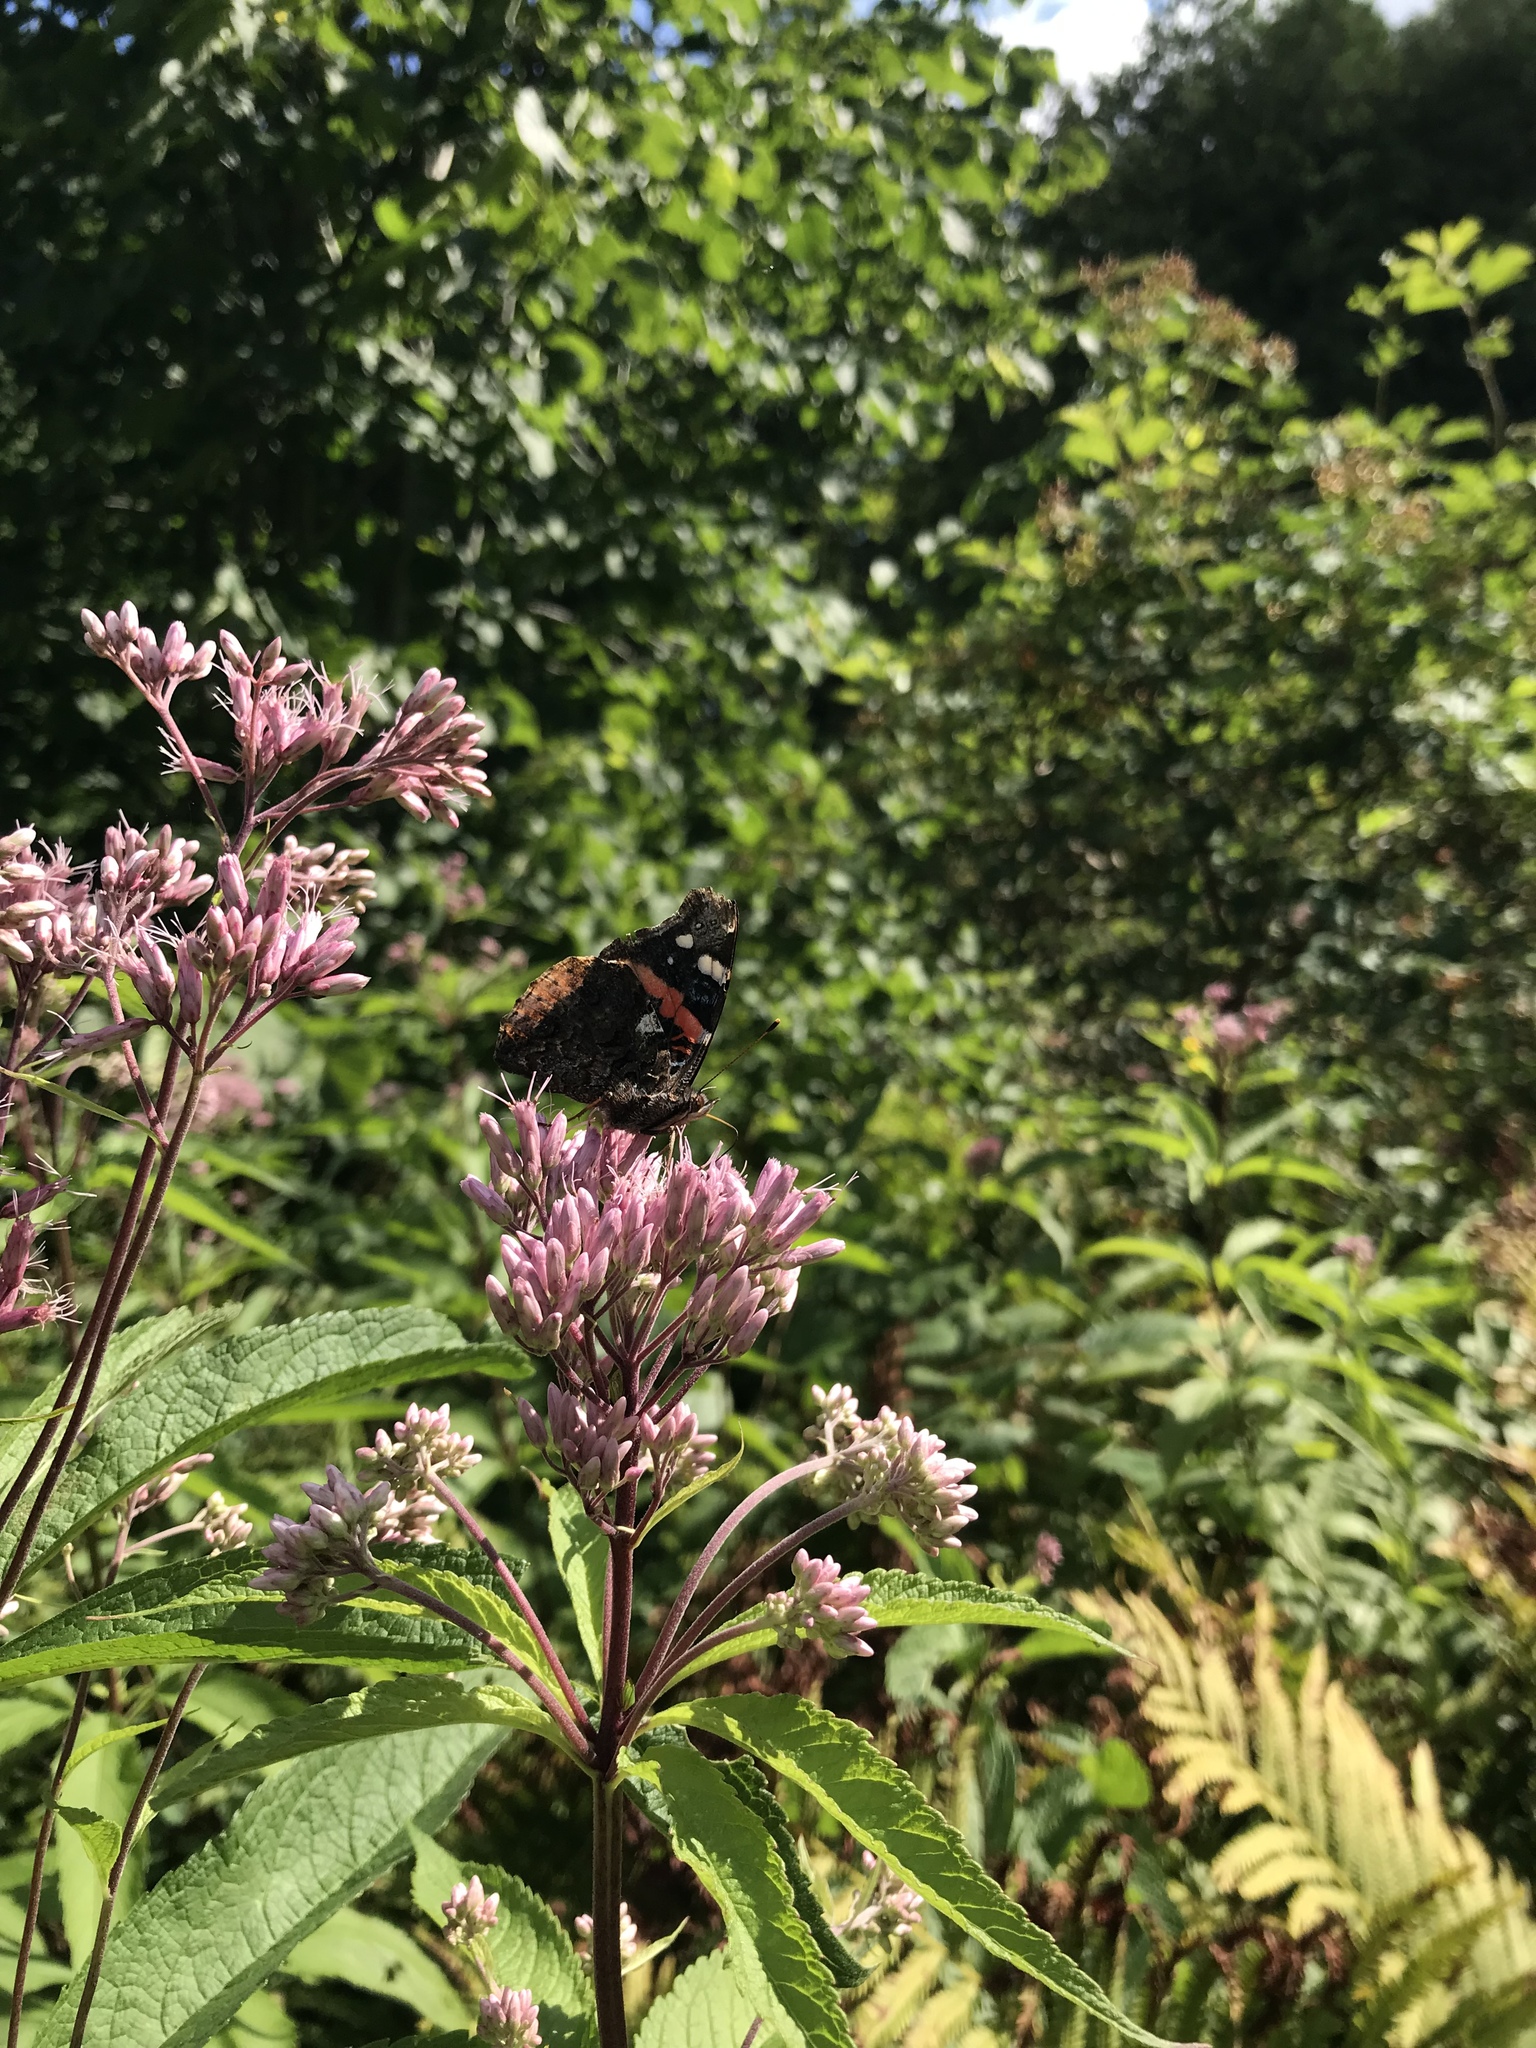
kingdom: Animalia
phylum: Arthropoda
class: Insecta
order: Lepidoptera
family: Nymphalidae
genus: Vanessa
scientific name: Vanessa atalanta
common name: Red admiral
